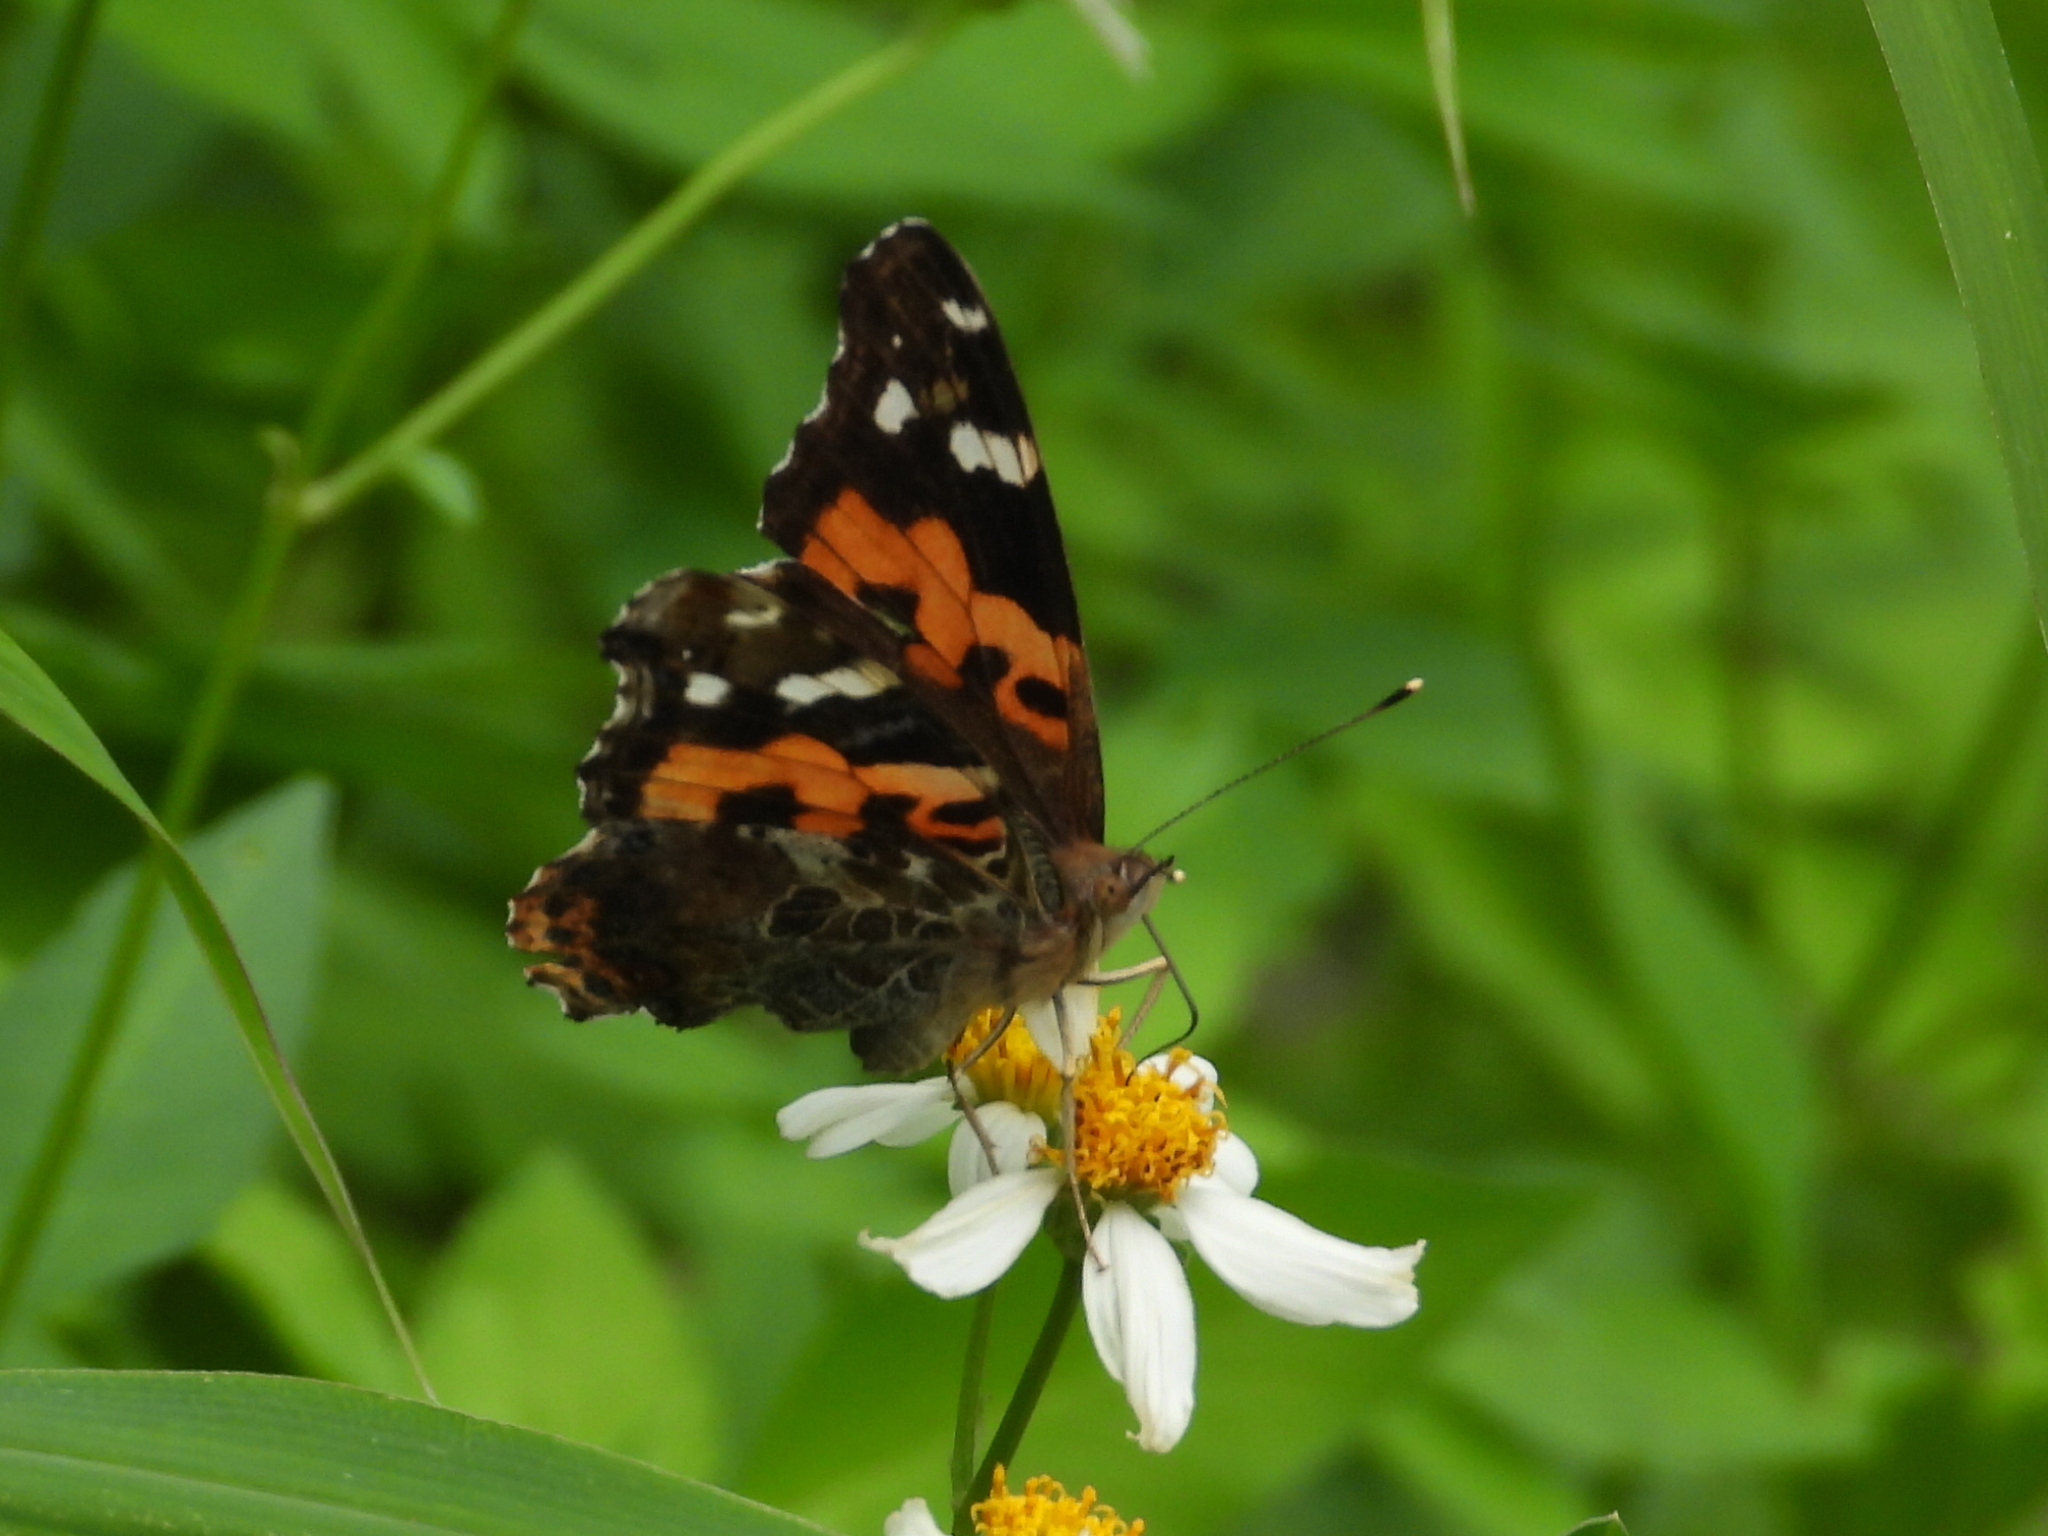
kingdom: Animalia
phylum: Arthropoda
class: Insecta
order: Lepidoptera
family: Nymphalidae
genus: Vanessa
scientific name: Vanessa indica
